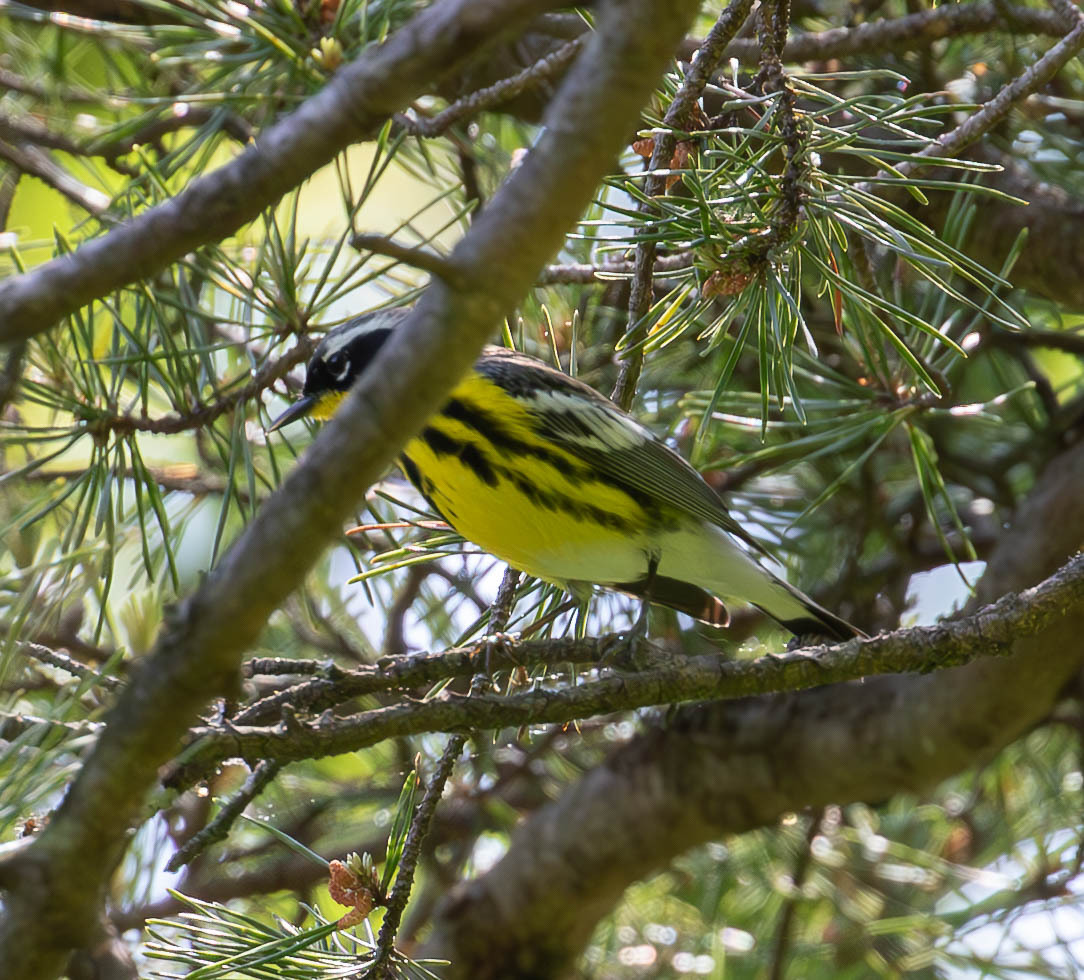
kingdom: Animalia
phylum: Chordata
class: Aves
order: Passeriformes
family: Parulidae
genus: Setophaga
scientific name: Setophaga magnolia
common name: Magnolia warbler
